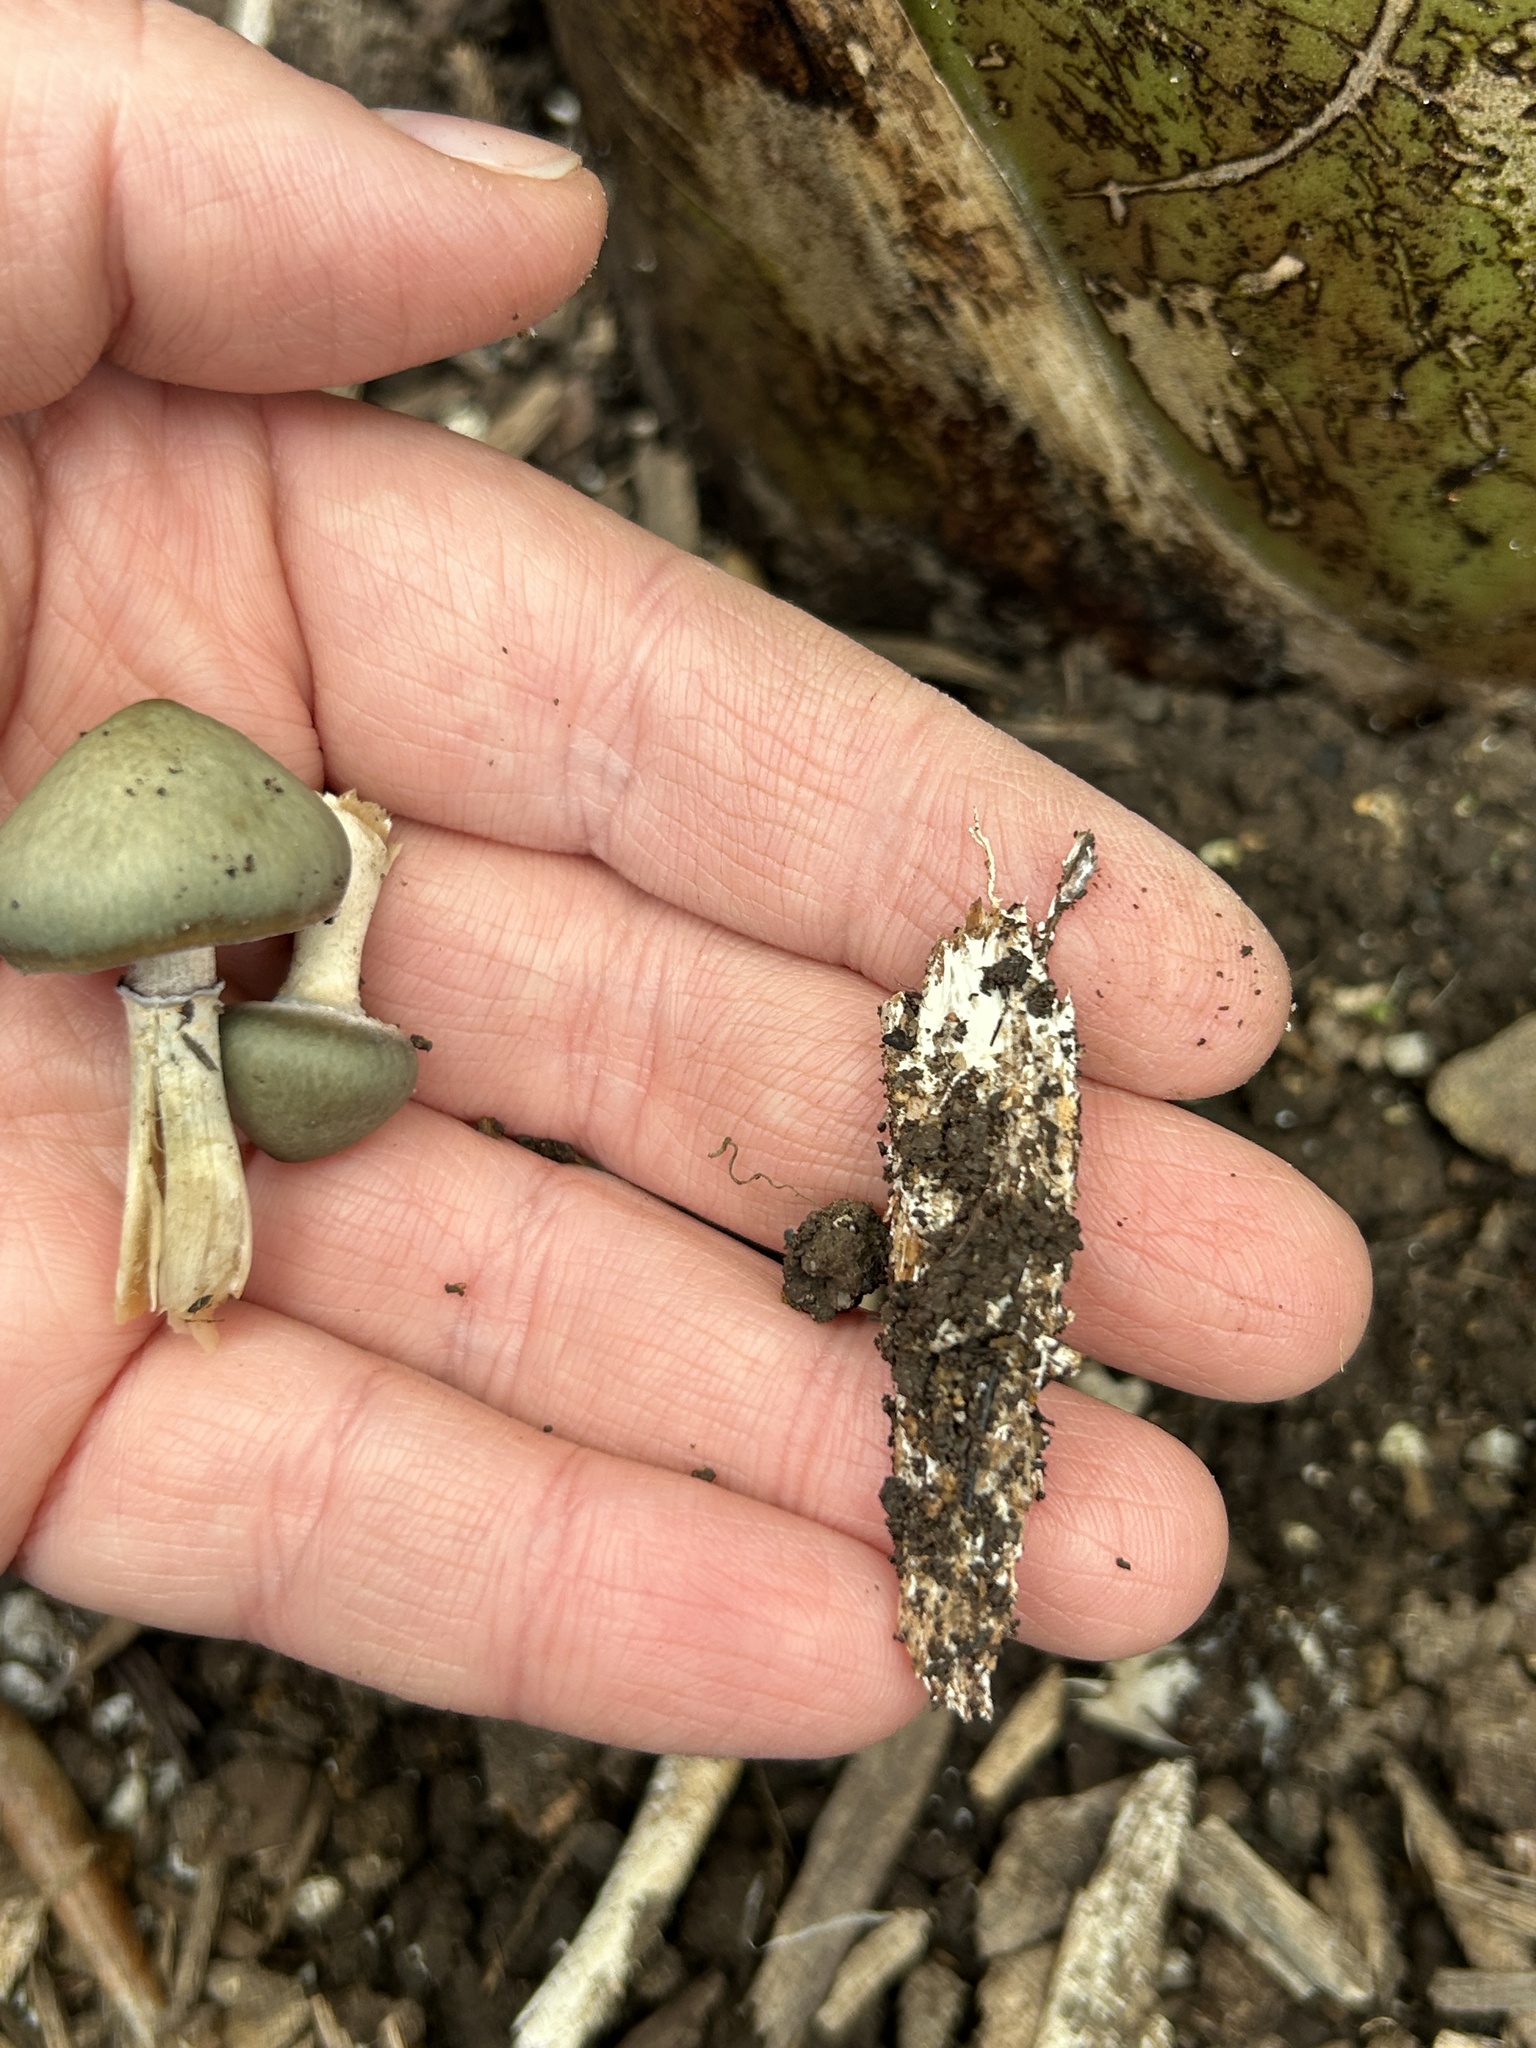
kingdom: Fungi
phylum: Basidiomycota
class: Agaricomycetes
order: Agaricales
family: Hymenogastraceae
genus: Psilocybe
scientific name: Psilocybe ovoideocystidiata
